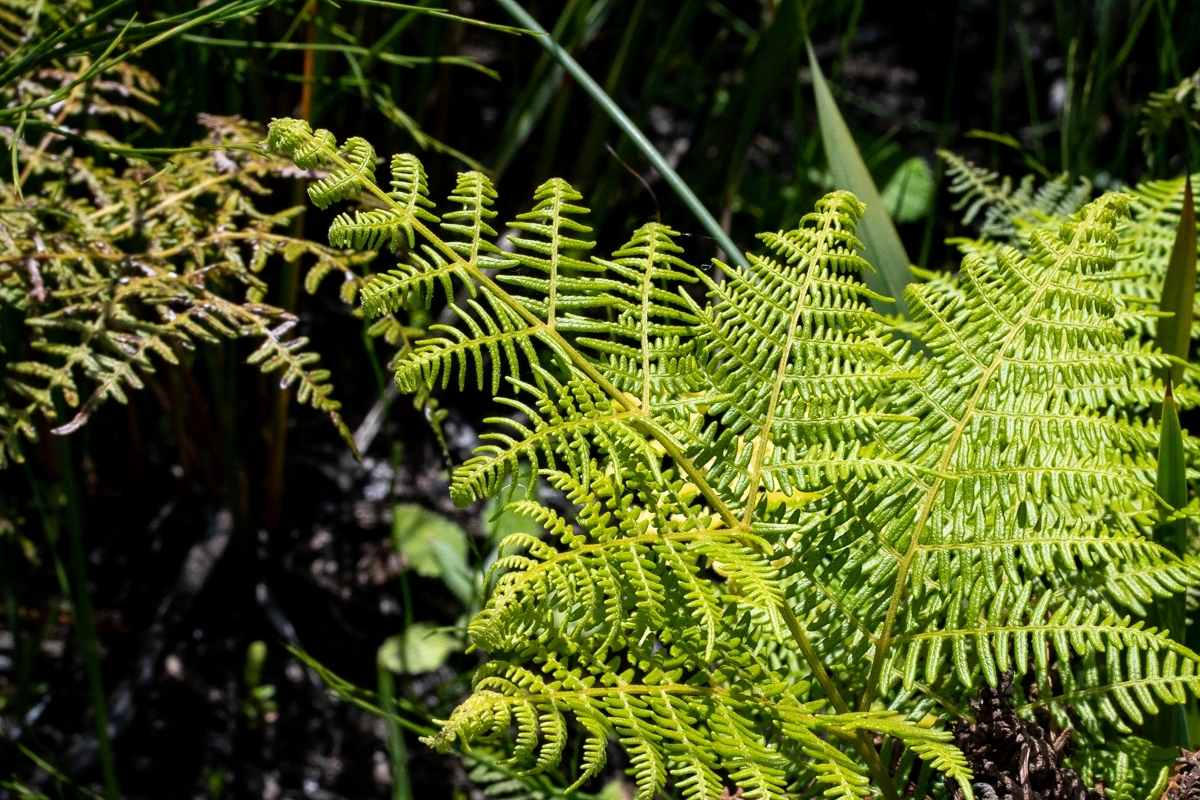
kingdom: Plantae
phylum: Tracheophyta
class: Polypodiopsida
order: Polypodiales
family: Dennstaedtiaceae
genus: Pteridium
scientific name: Pteridium aquilinum
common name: Bracken
